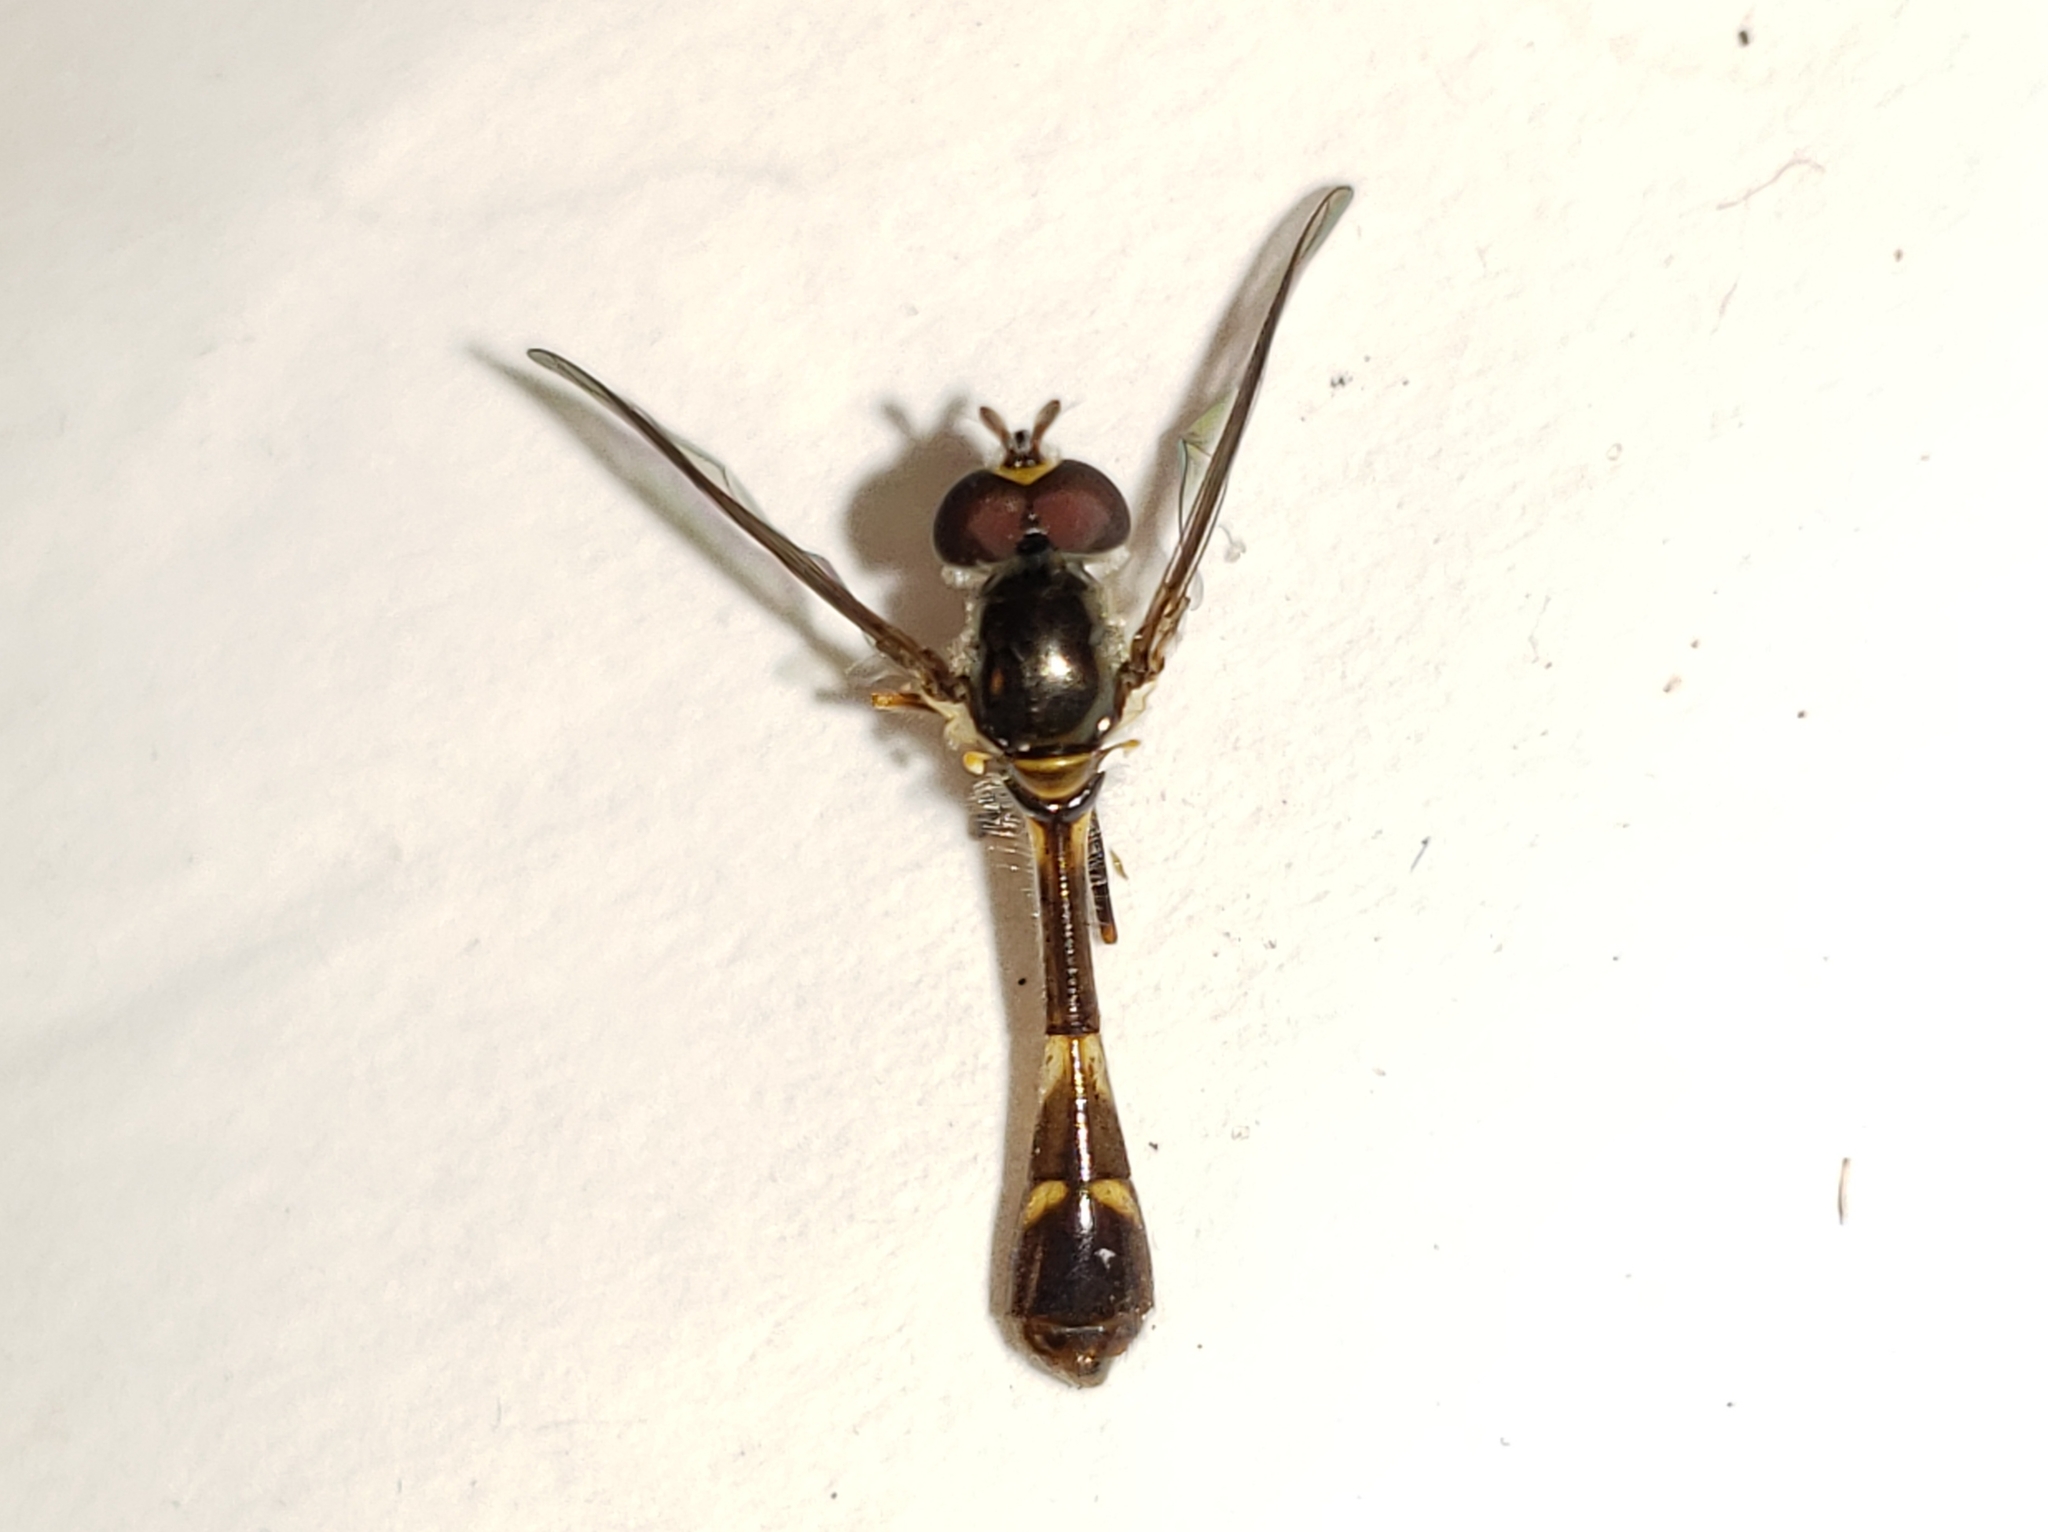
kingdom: Animalia
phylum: Arthropoda
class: Insecta
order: Diptera
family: Syrphidae
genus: Dioprosopa
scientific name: Dioprosopa clavatus
